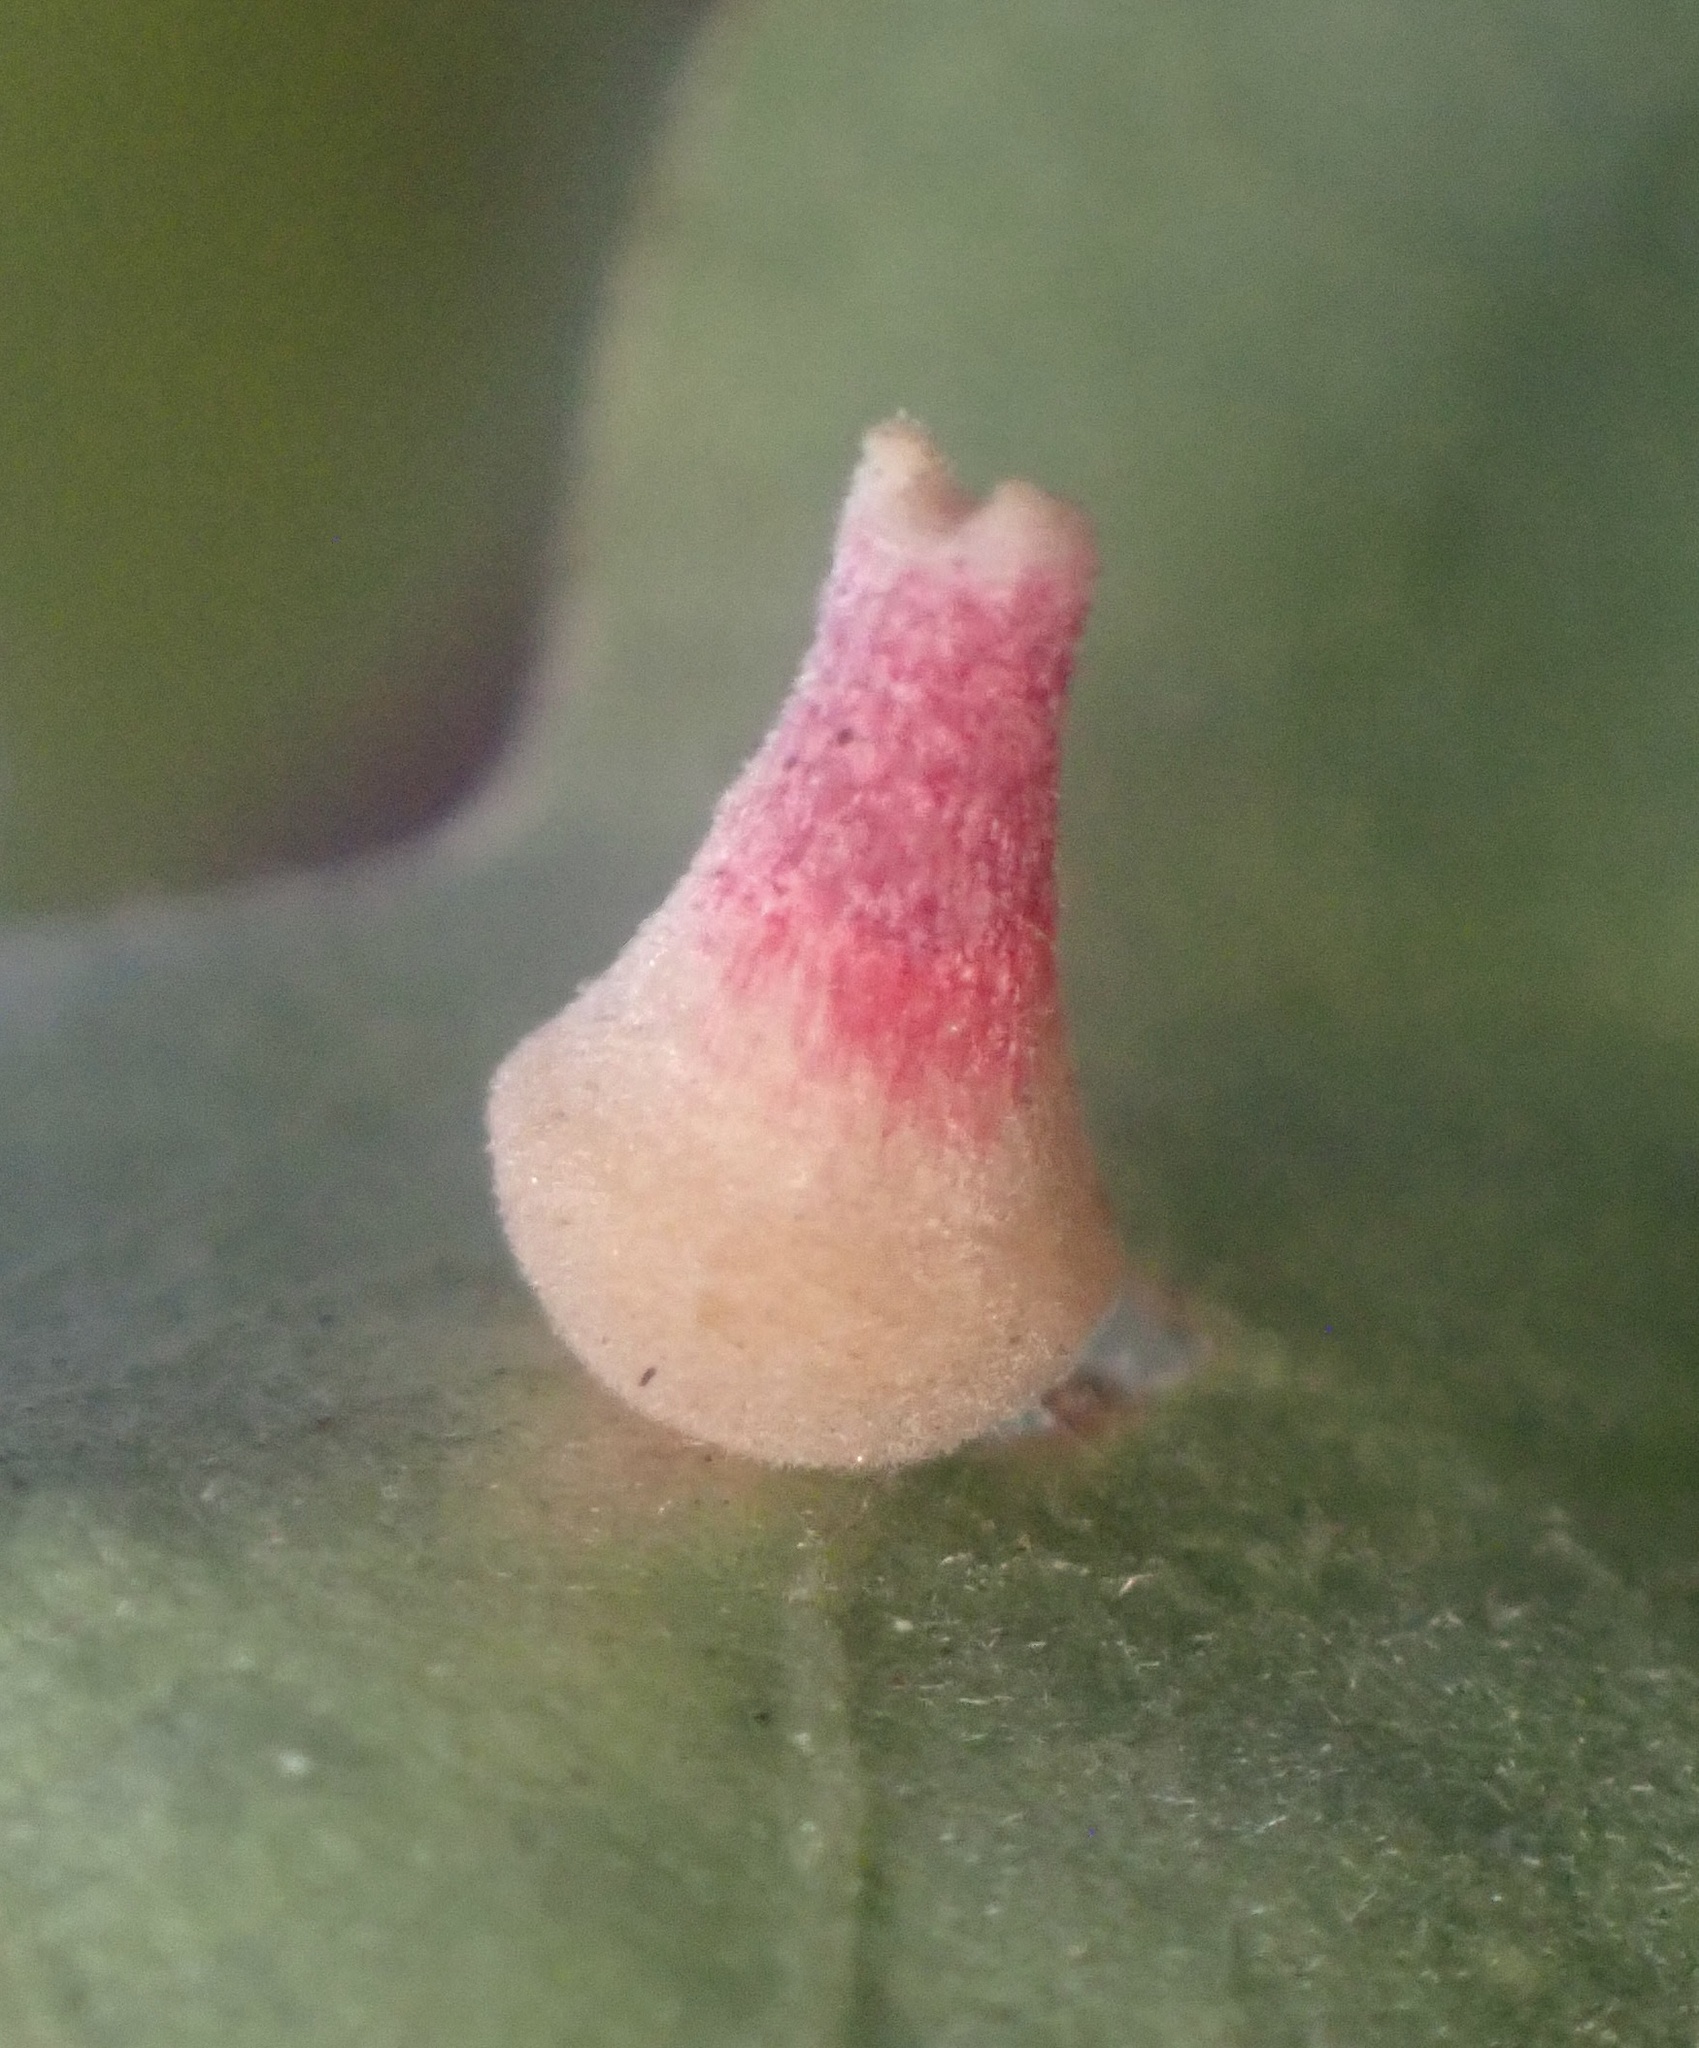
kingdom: Animalia
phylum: Arthropoda
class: Insecta
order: Hymenoptera
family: Cynipidae
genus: Andricus
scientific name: Andricus
